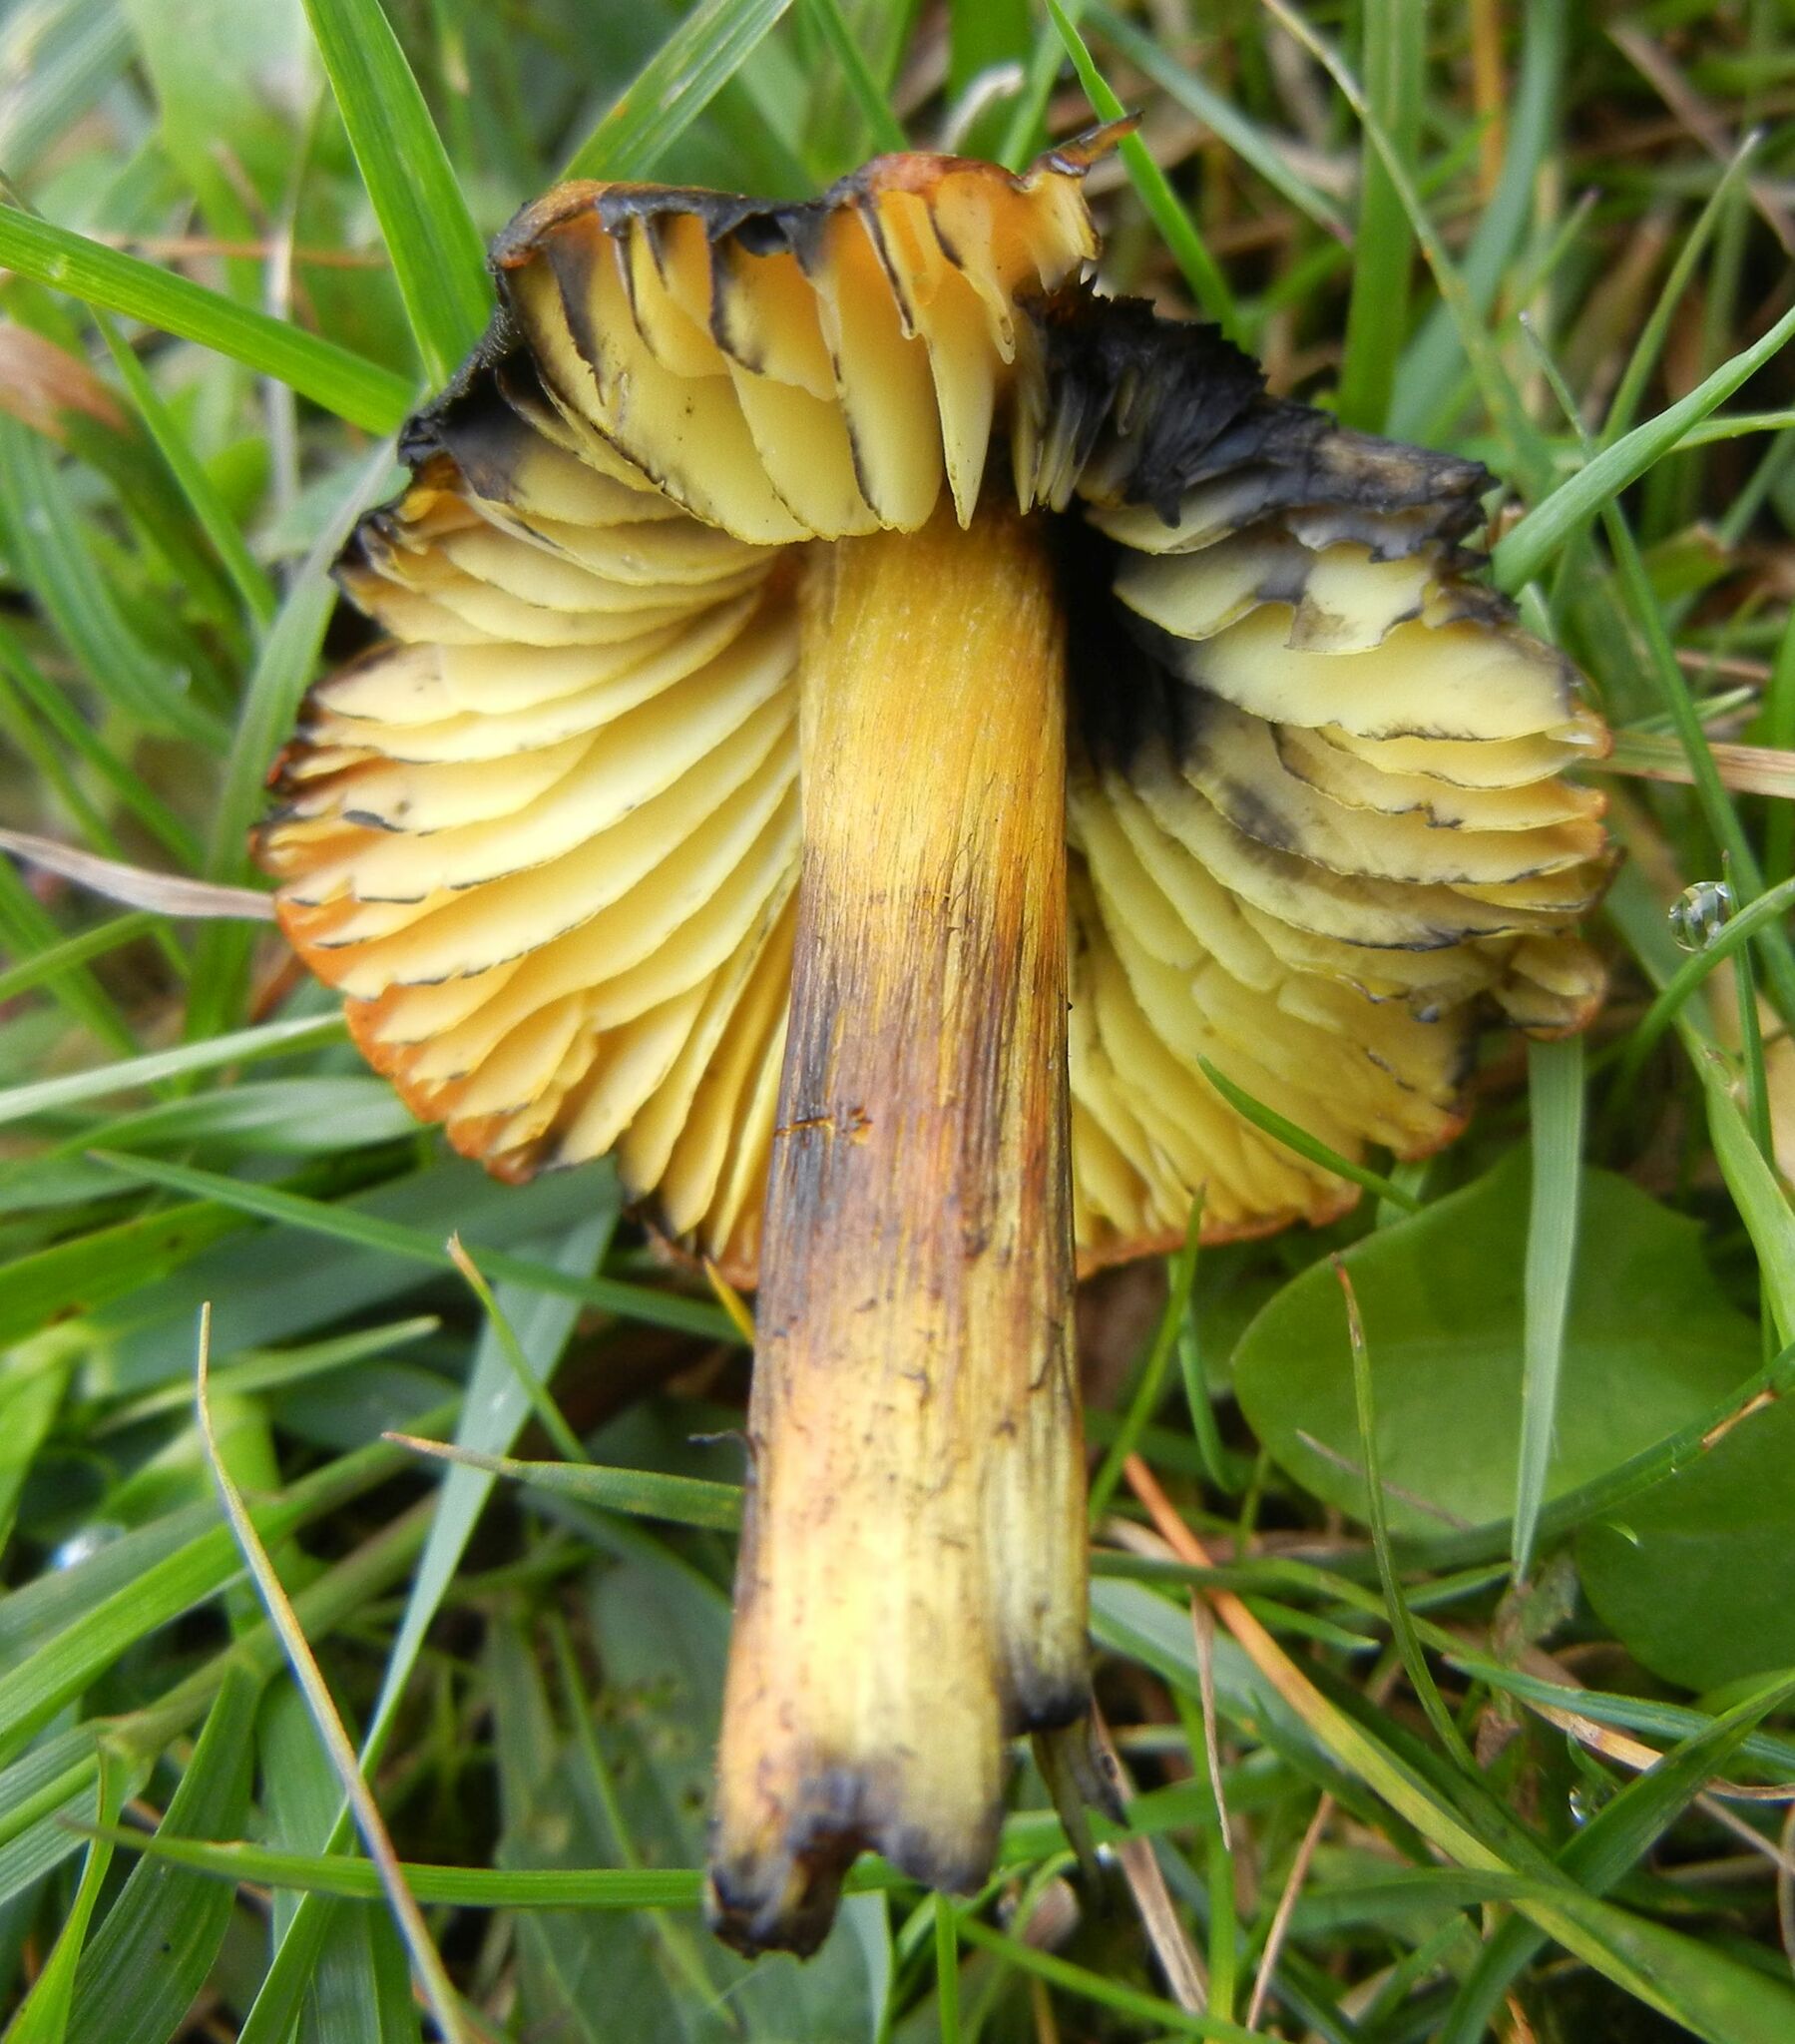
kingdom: Fungi
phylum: Basidiomycota
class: Agaricomycetes
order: Agaricales
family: Hygrophoraceae
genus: Hygrocybe
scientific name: Hygrocybe conica
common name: Blackening wax-cap
